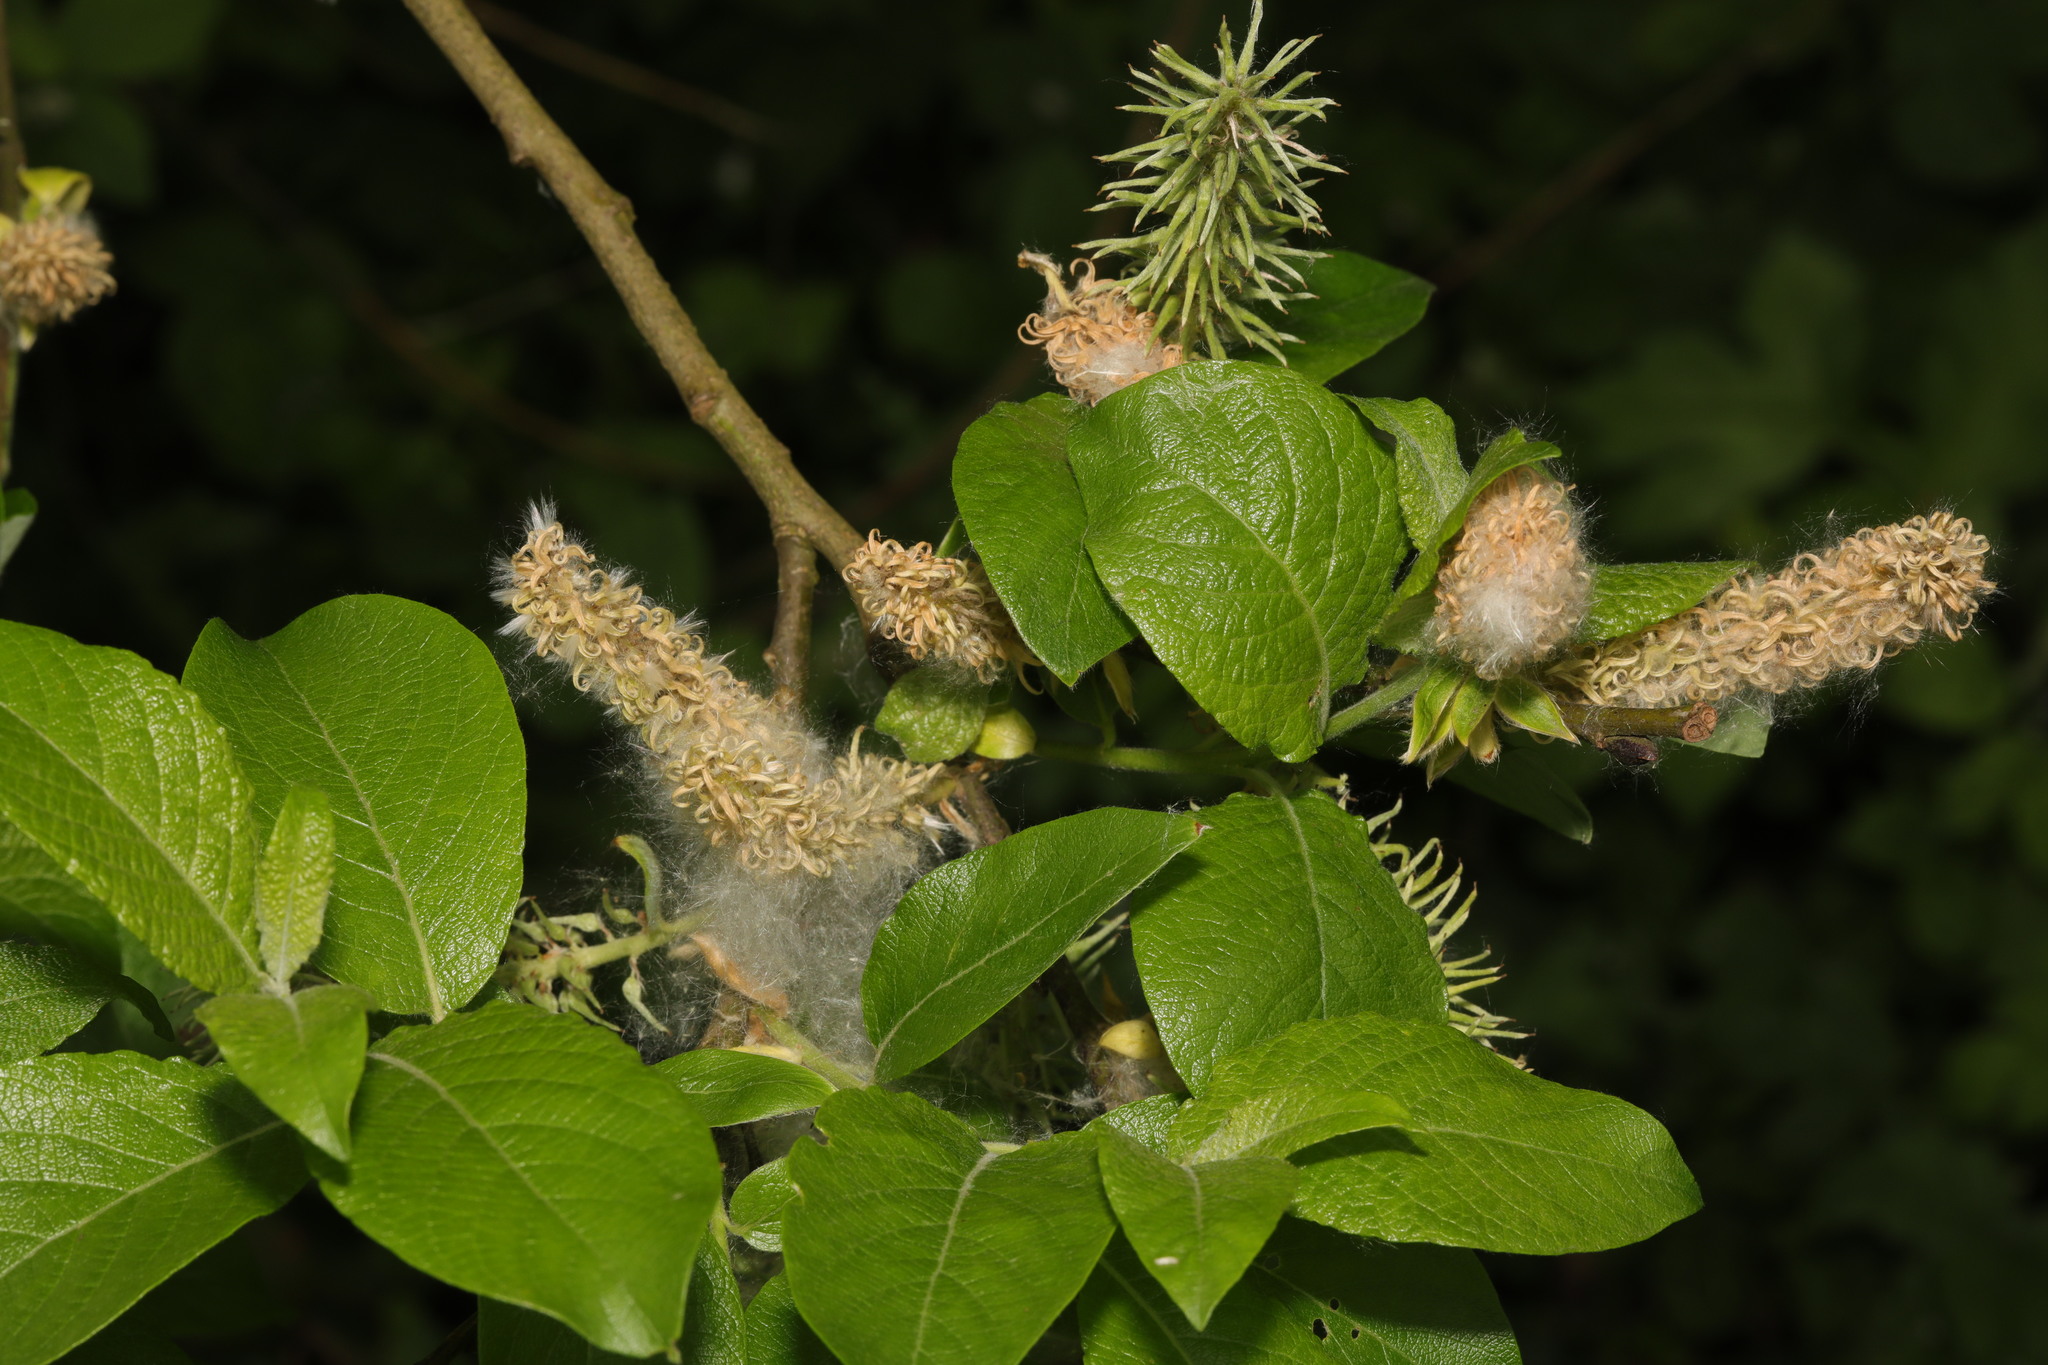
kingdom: Plantae
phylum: Tracheophyta
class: Magnoliopsida
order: Malpighiales
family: Salicaceae
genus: Salix
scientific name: Salix caprea
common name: Goat willow
